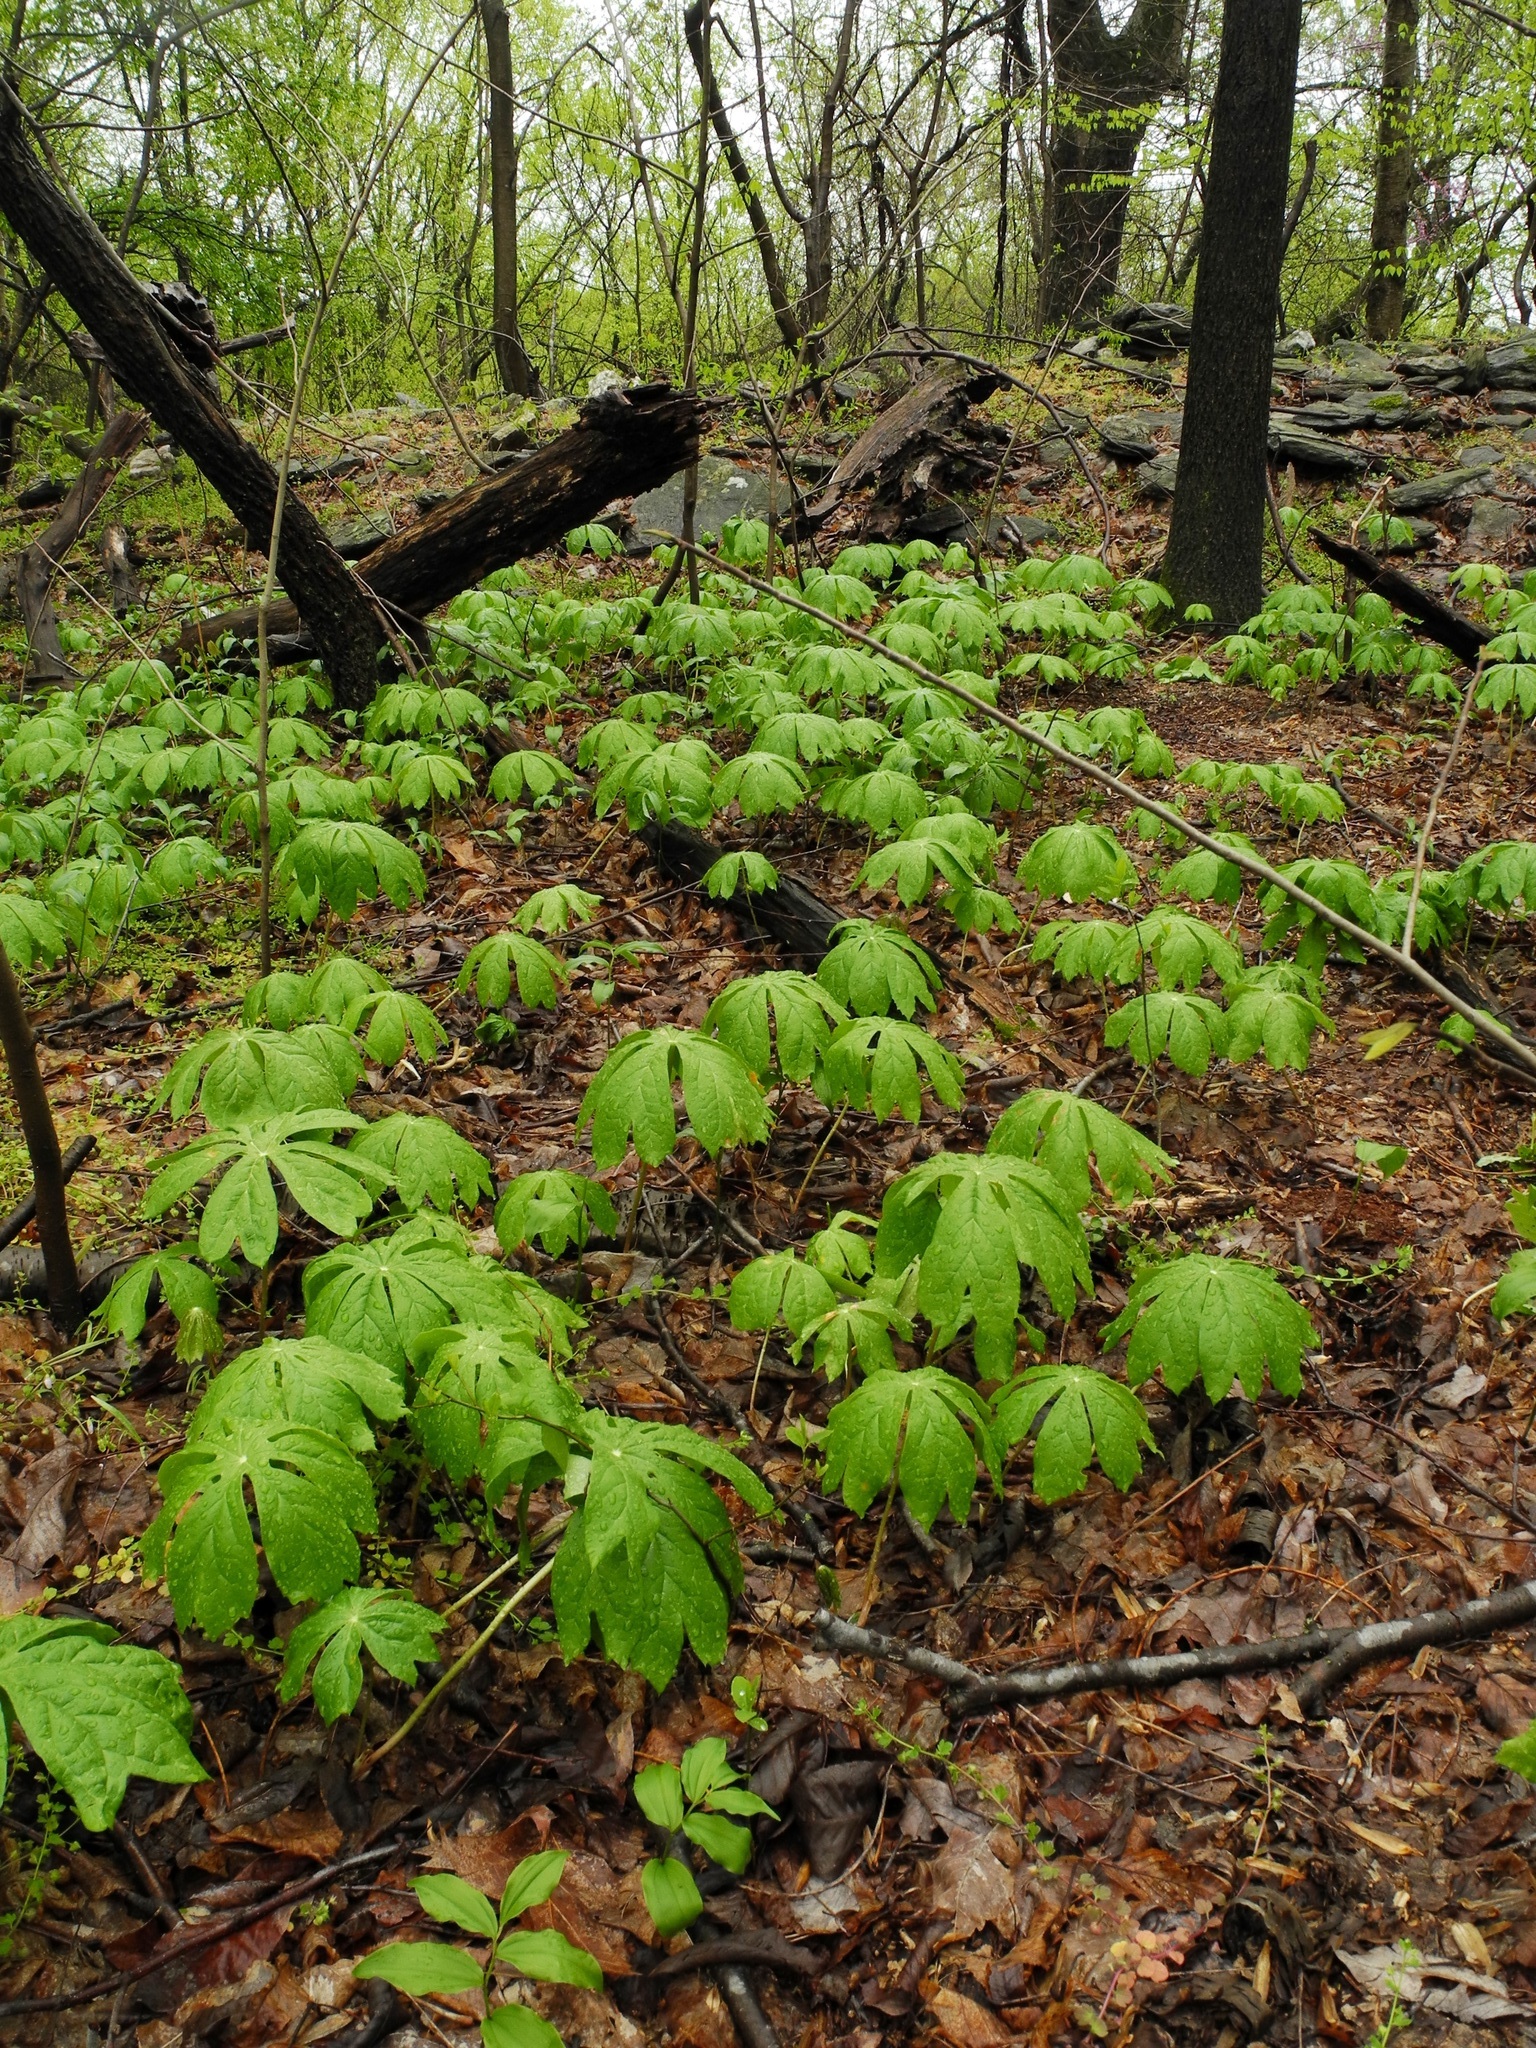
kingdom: Plantae
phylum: Tracheophyta
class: Magnoliopsida
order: Ranunculales
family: Berberidaceae
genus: Podophyllum
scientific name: Podophyllum peltatum
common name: Wild mandrake
